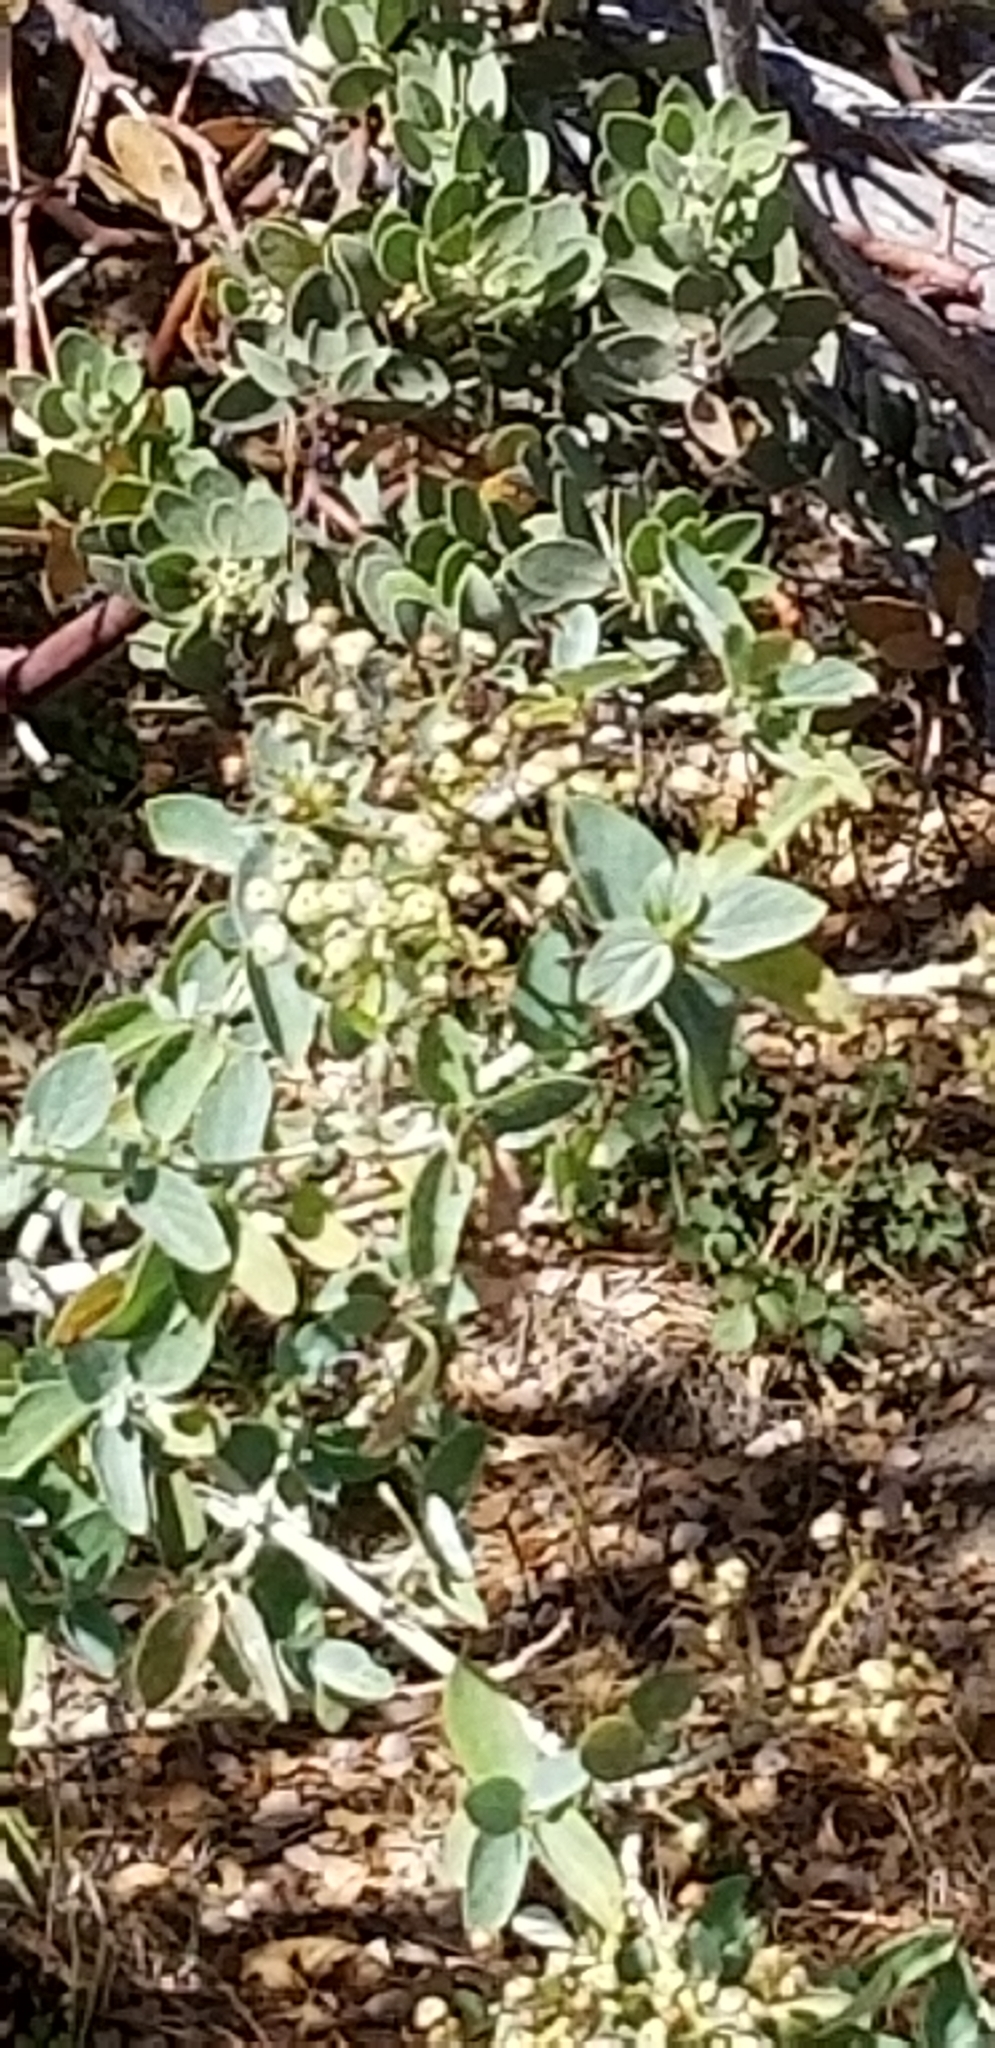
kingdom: Plantae
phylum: Tracheophyta
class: Magnoliopsida
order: Rosales
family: Rhamnaceae
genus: Ceanothus
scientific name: Ceanothus leucodermis
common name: Chaparral whitethorn
